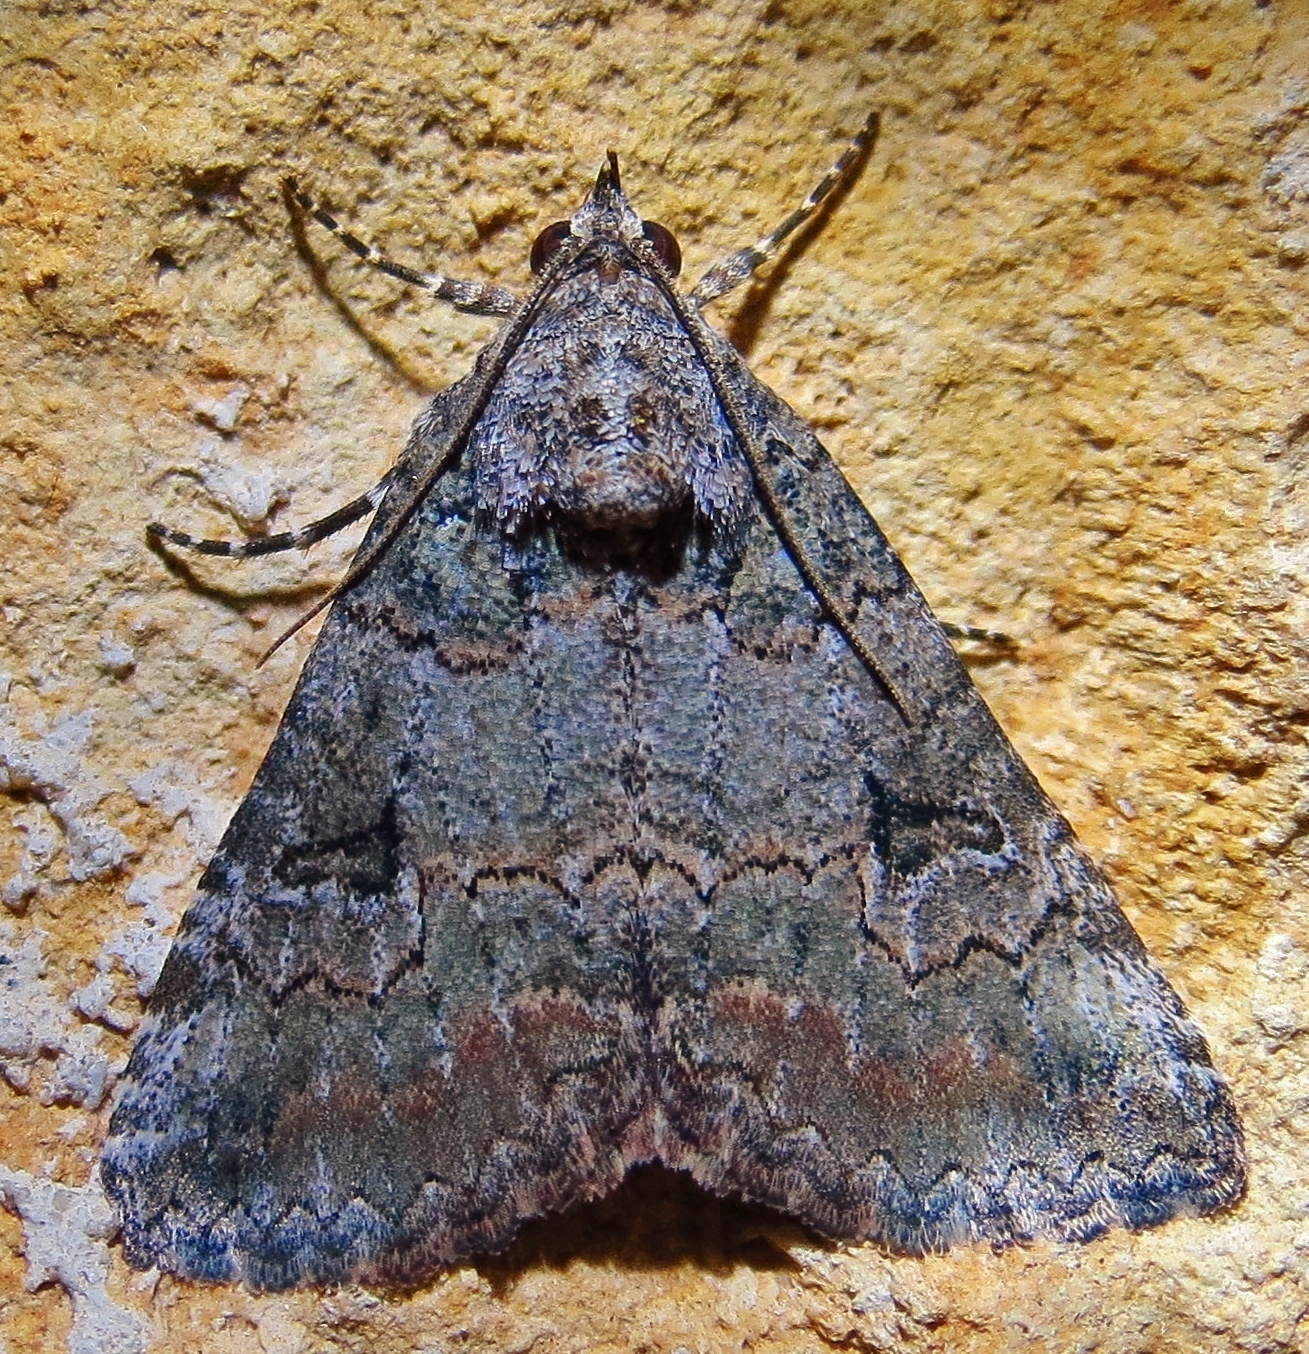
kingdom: Animalia
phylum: Arthropoda
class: Insecta
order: Lepidoptera
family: Erebidae
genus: Eubolina
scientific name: Eubolina impartialis
